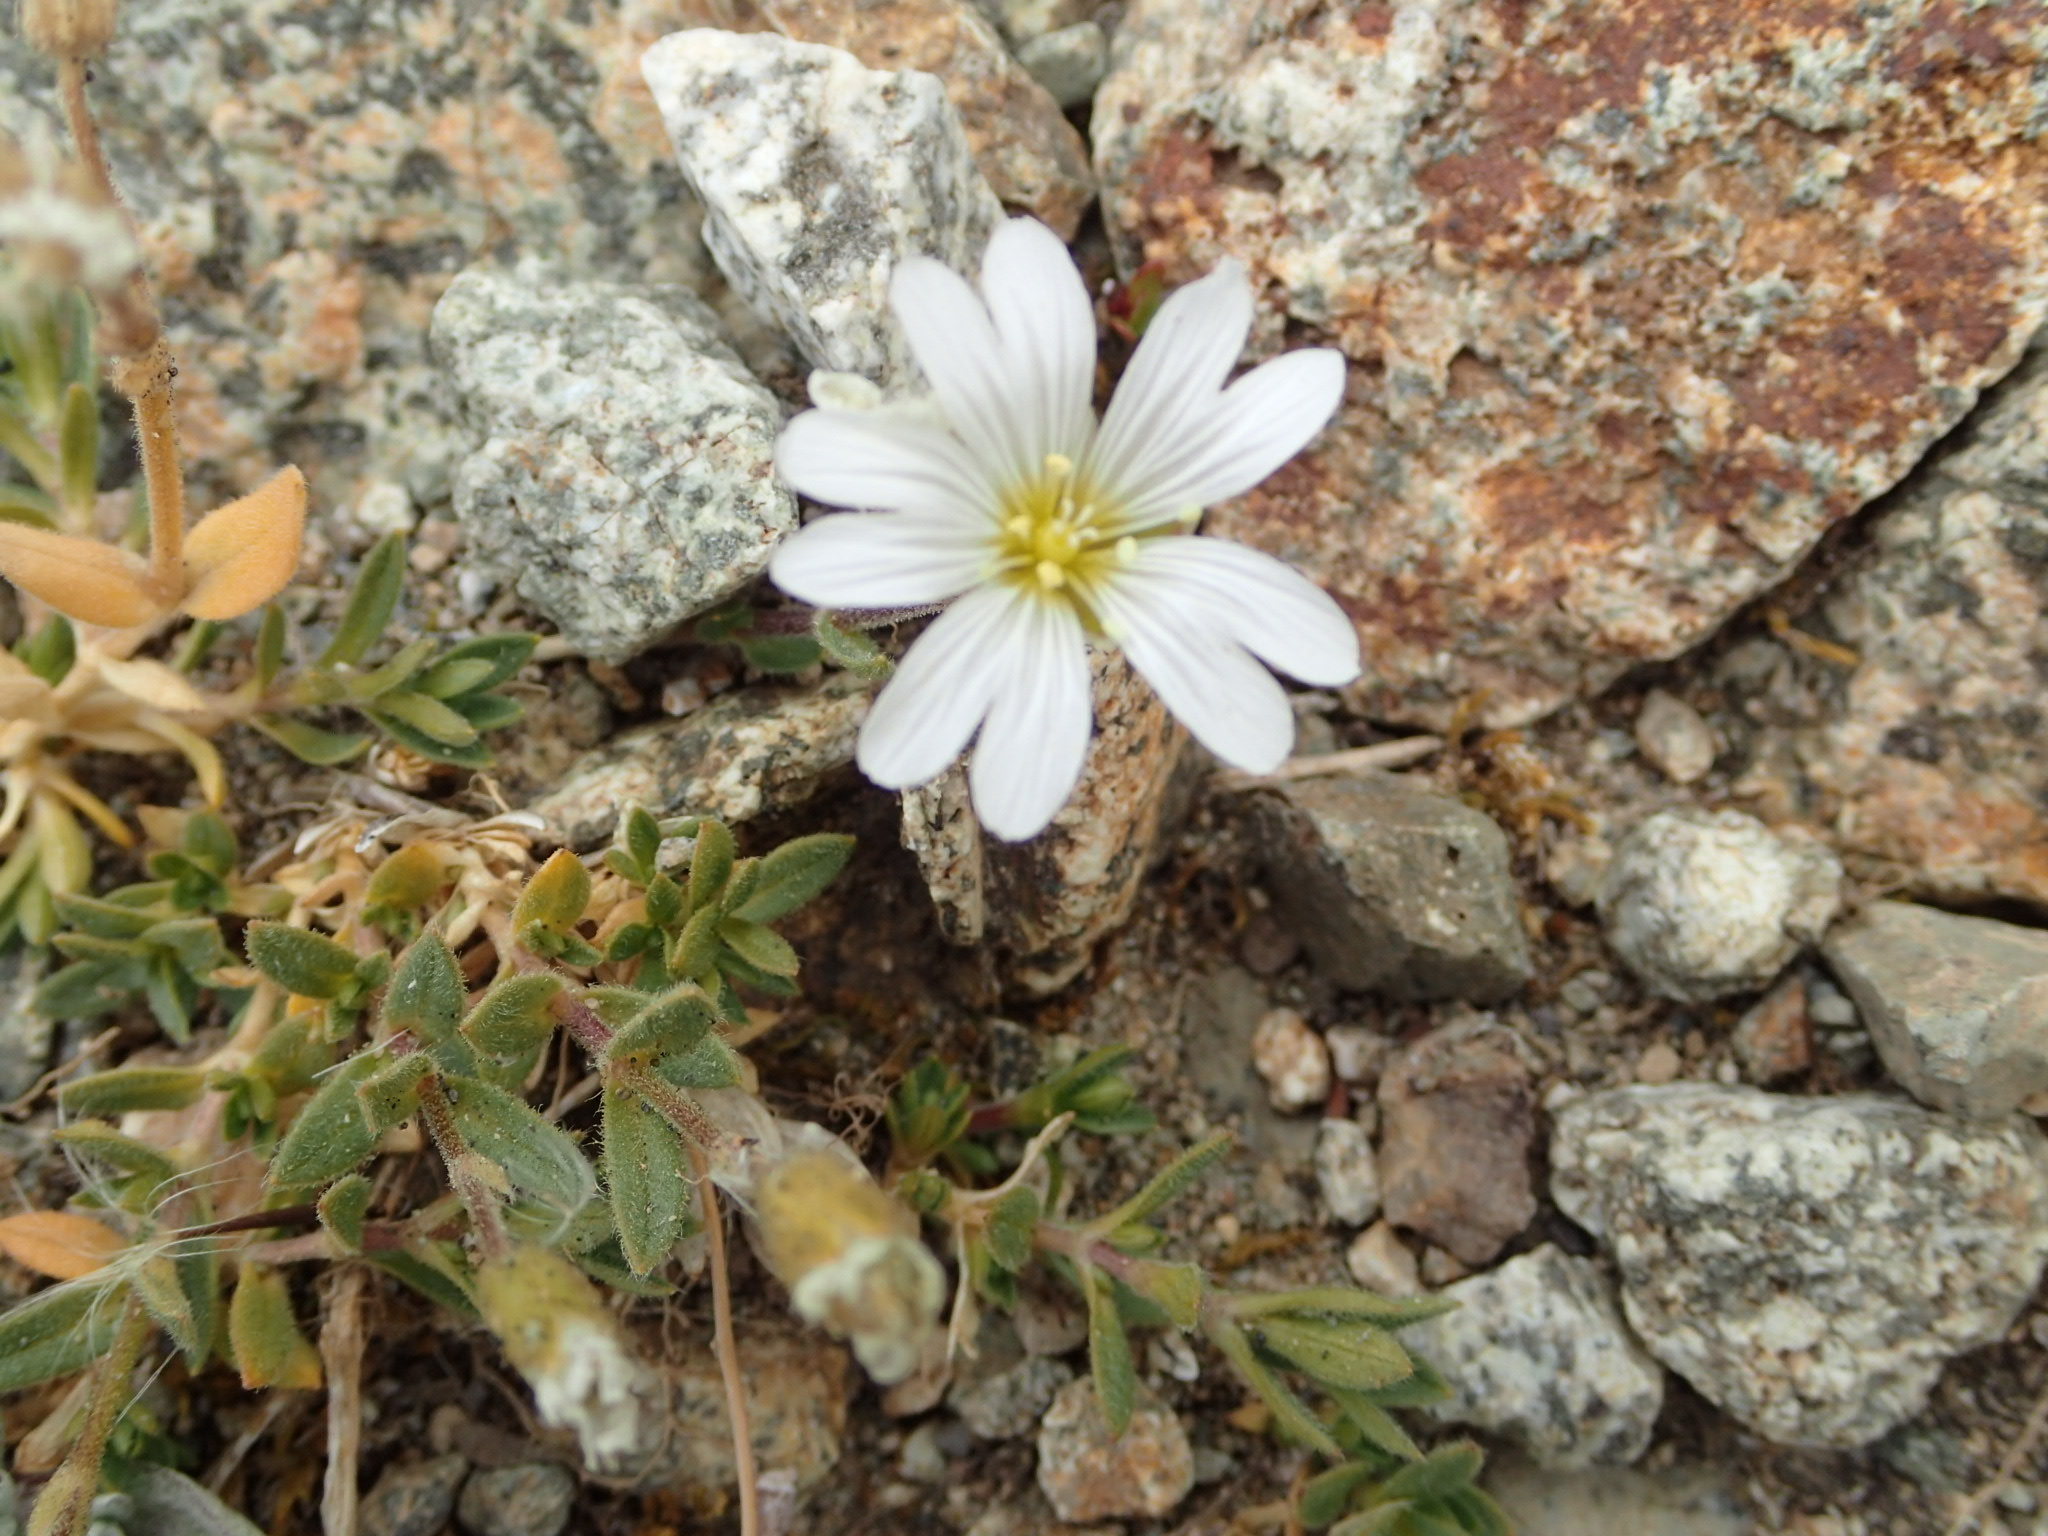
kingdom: Plantae
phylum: Tracheophyta
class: Magnoliopsida
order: Caryophyllales
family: Caryophyllaceae
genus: Cerastium
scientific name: Cerastium arvense
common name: Field mouse-ear
